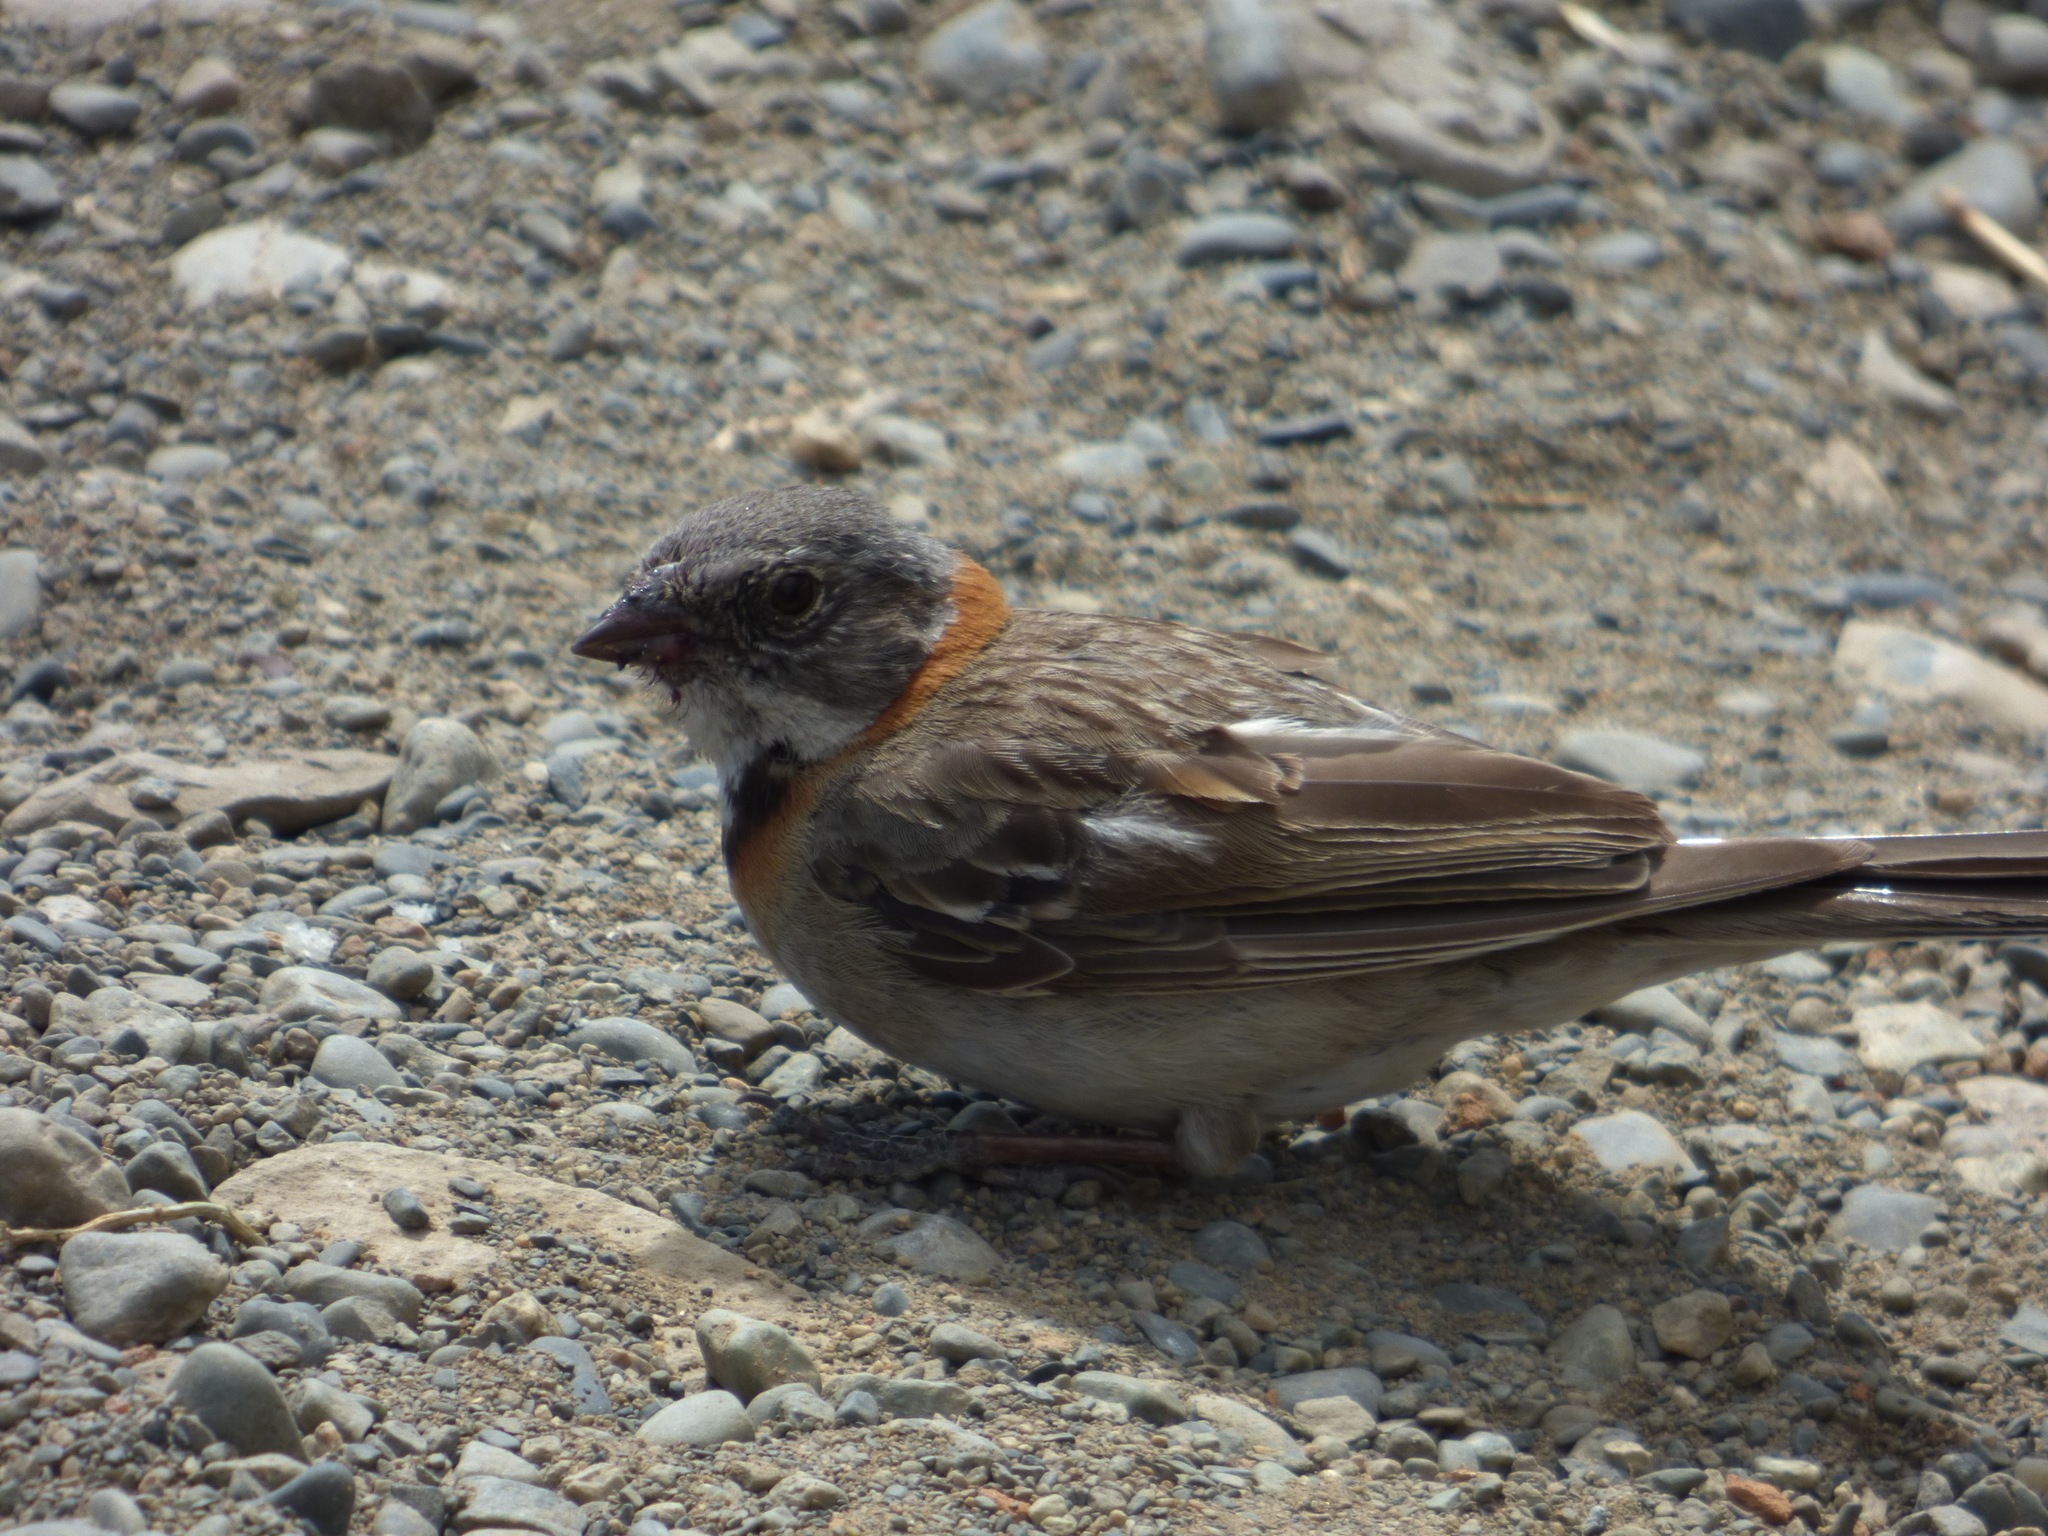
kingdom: Animalia
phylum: Chordata
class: Aves
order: Passeriformes
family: Passerellidae
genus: Zonotrichia
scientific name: Zonotrichia capensis
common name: Rufous-collared sparrow
